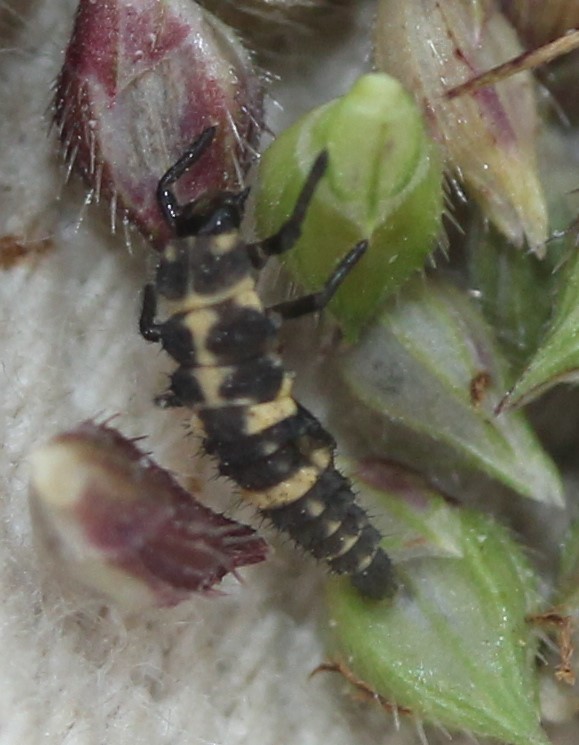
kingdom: Animalia
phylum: Arthropoda
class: Insecta
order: Coleoptera
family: Coccinellidae
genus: Coleomegilla
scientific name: Coleomegilla maculata
